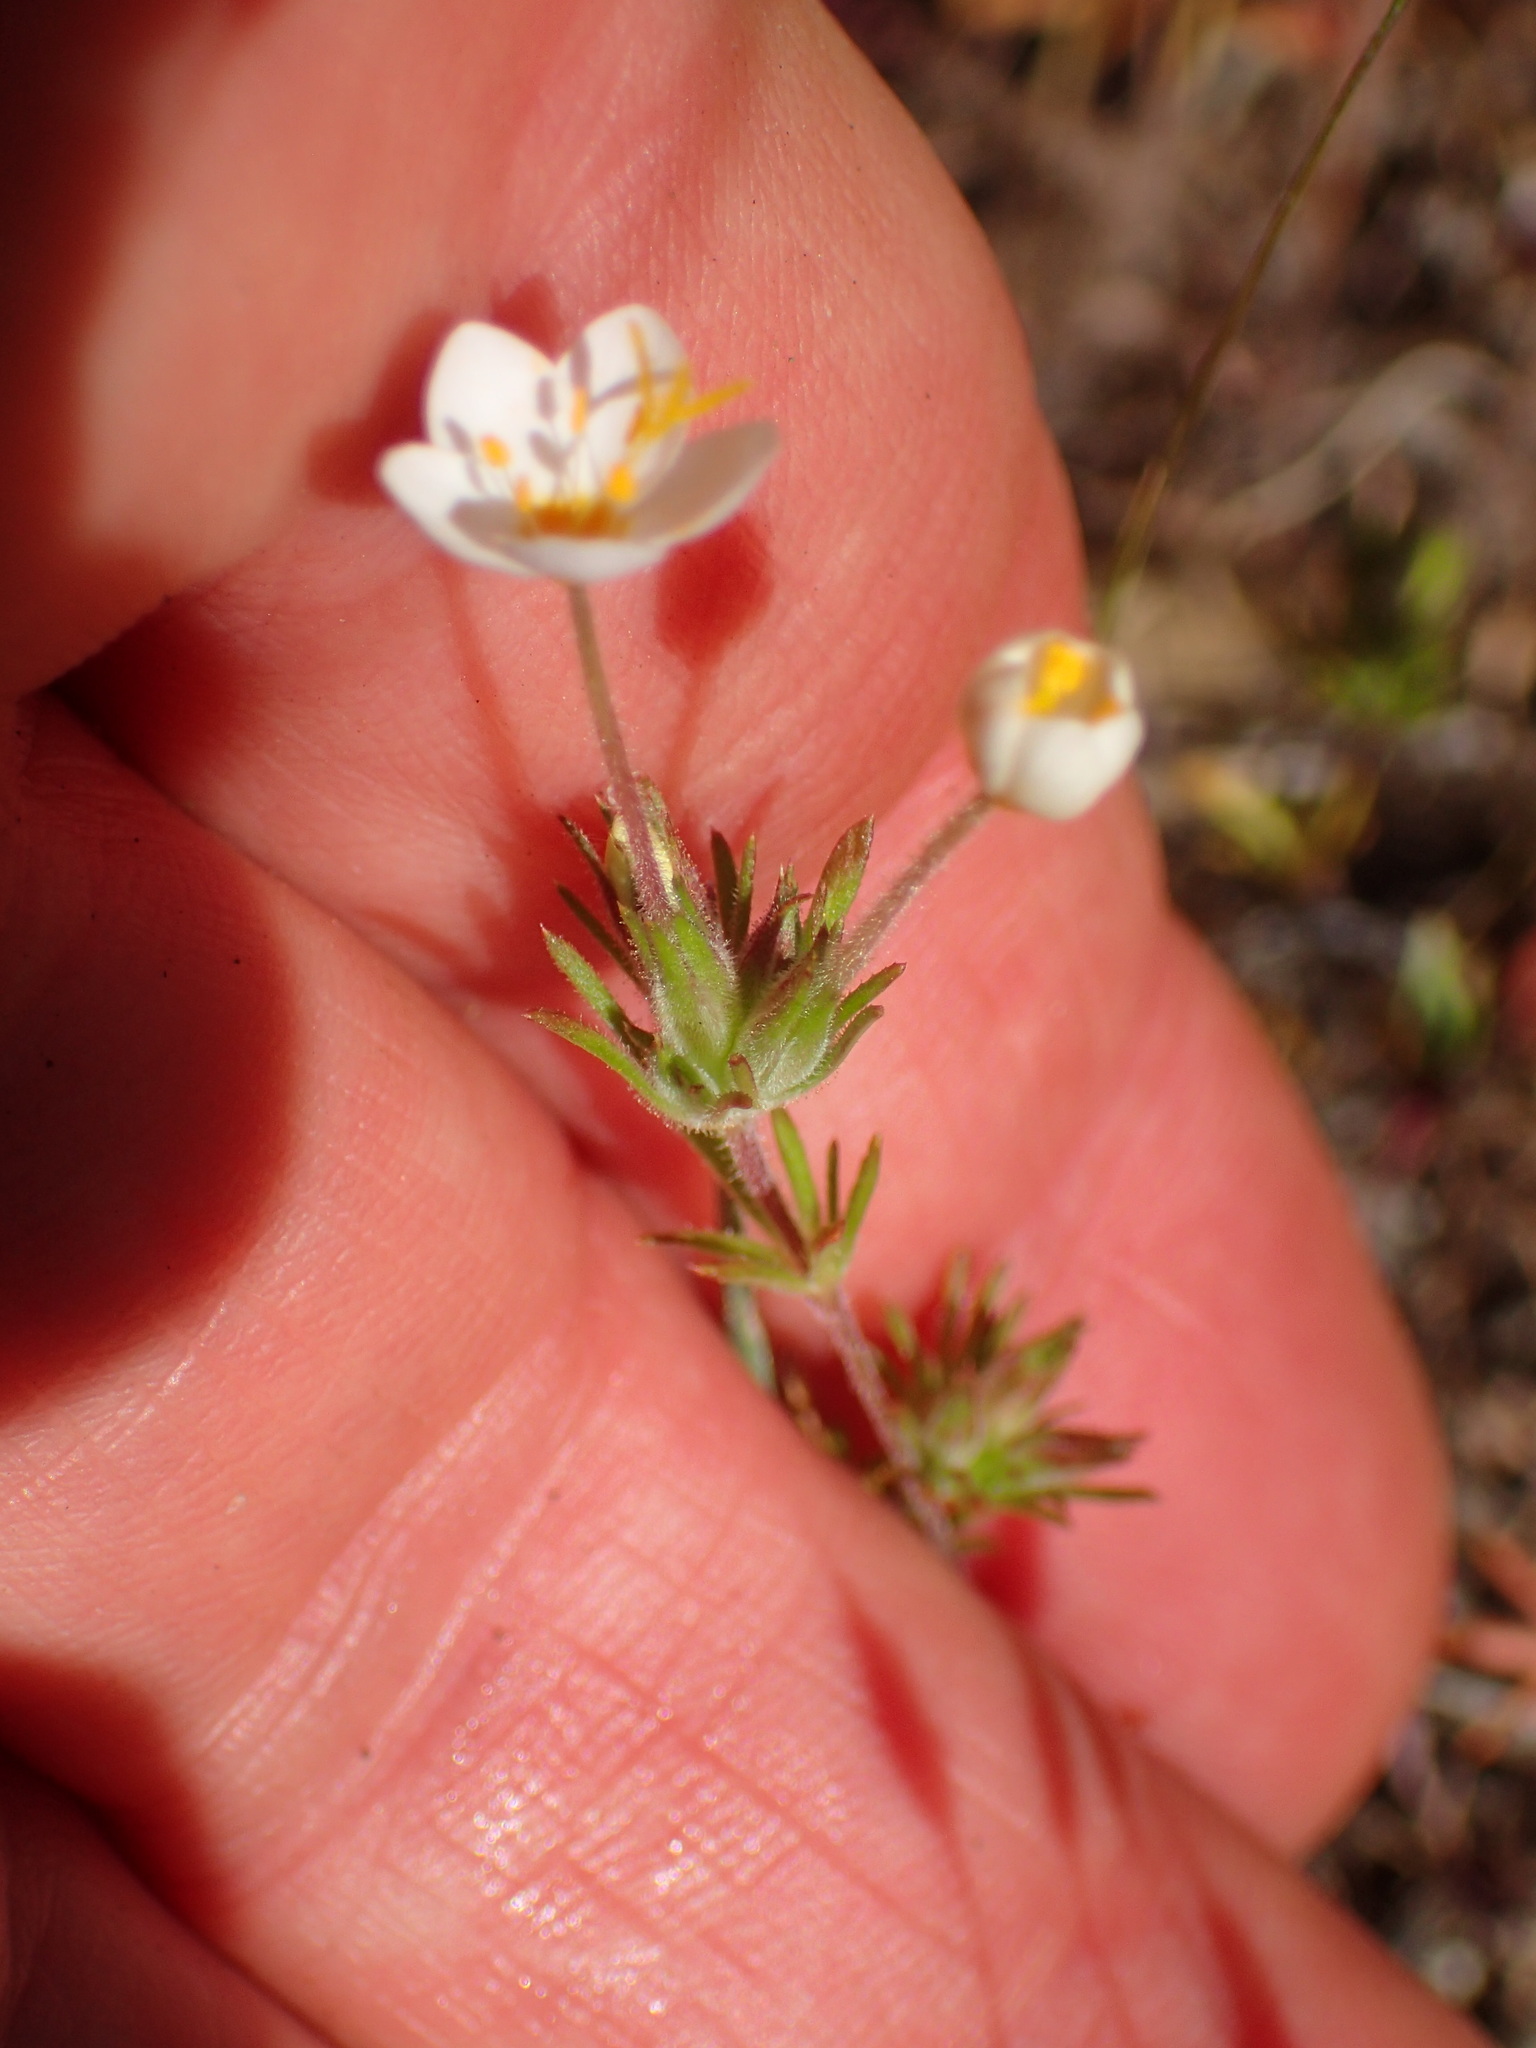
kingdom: Plantae
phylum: Tracheophyta
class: Magnoliopsida
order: Ericales
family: Polemoniaceae
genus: Leptosiphon
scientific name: Leptosiphon parviflorus
